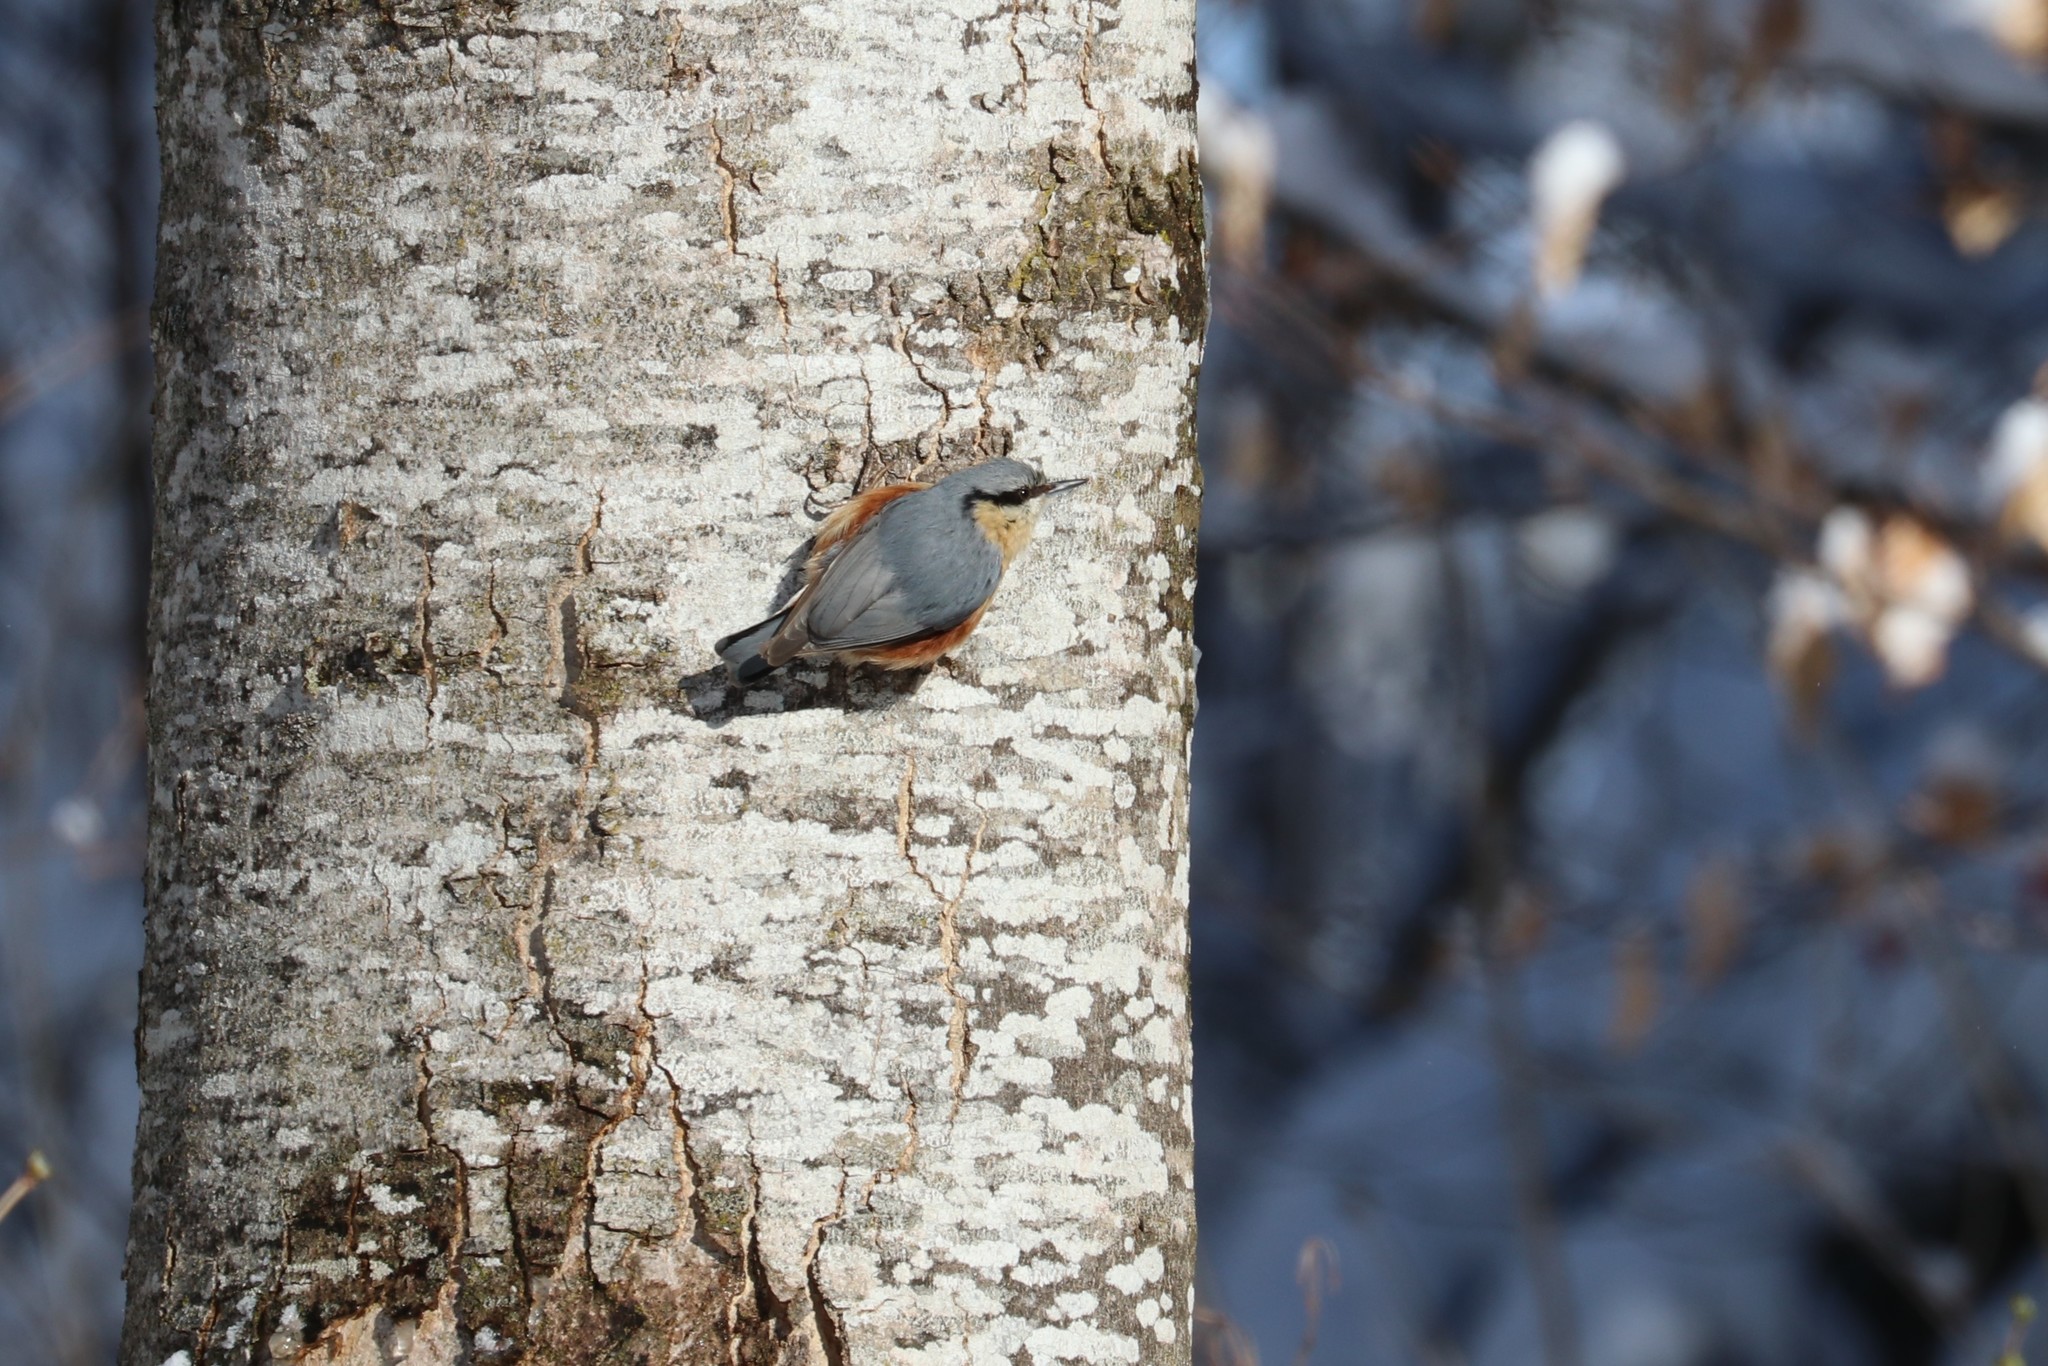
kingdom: Animalia
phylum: Chordata
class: Aves
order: Passeriformes
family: Sittidae
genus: Sitta
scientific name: Sitta europaea
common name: Eurasian nuthatch
